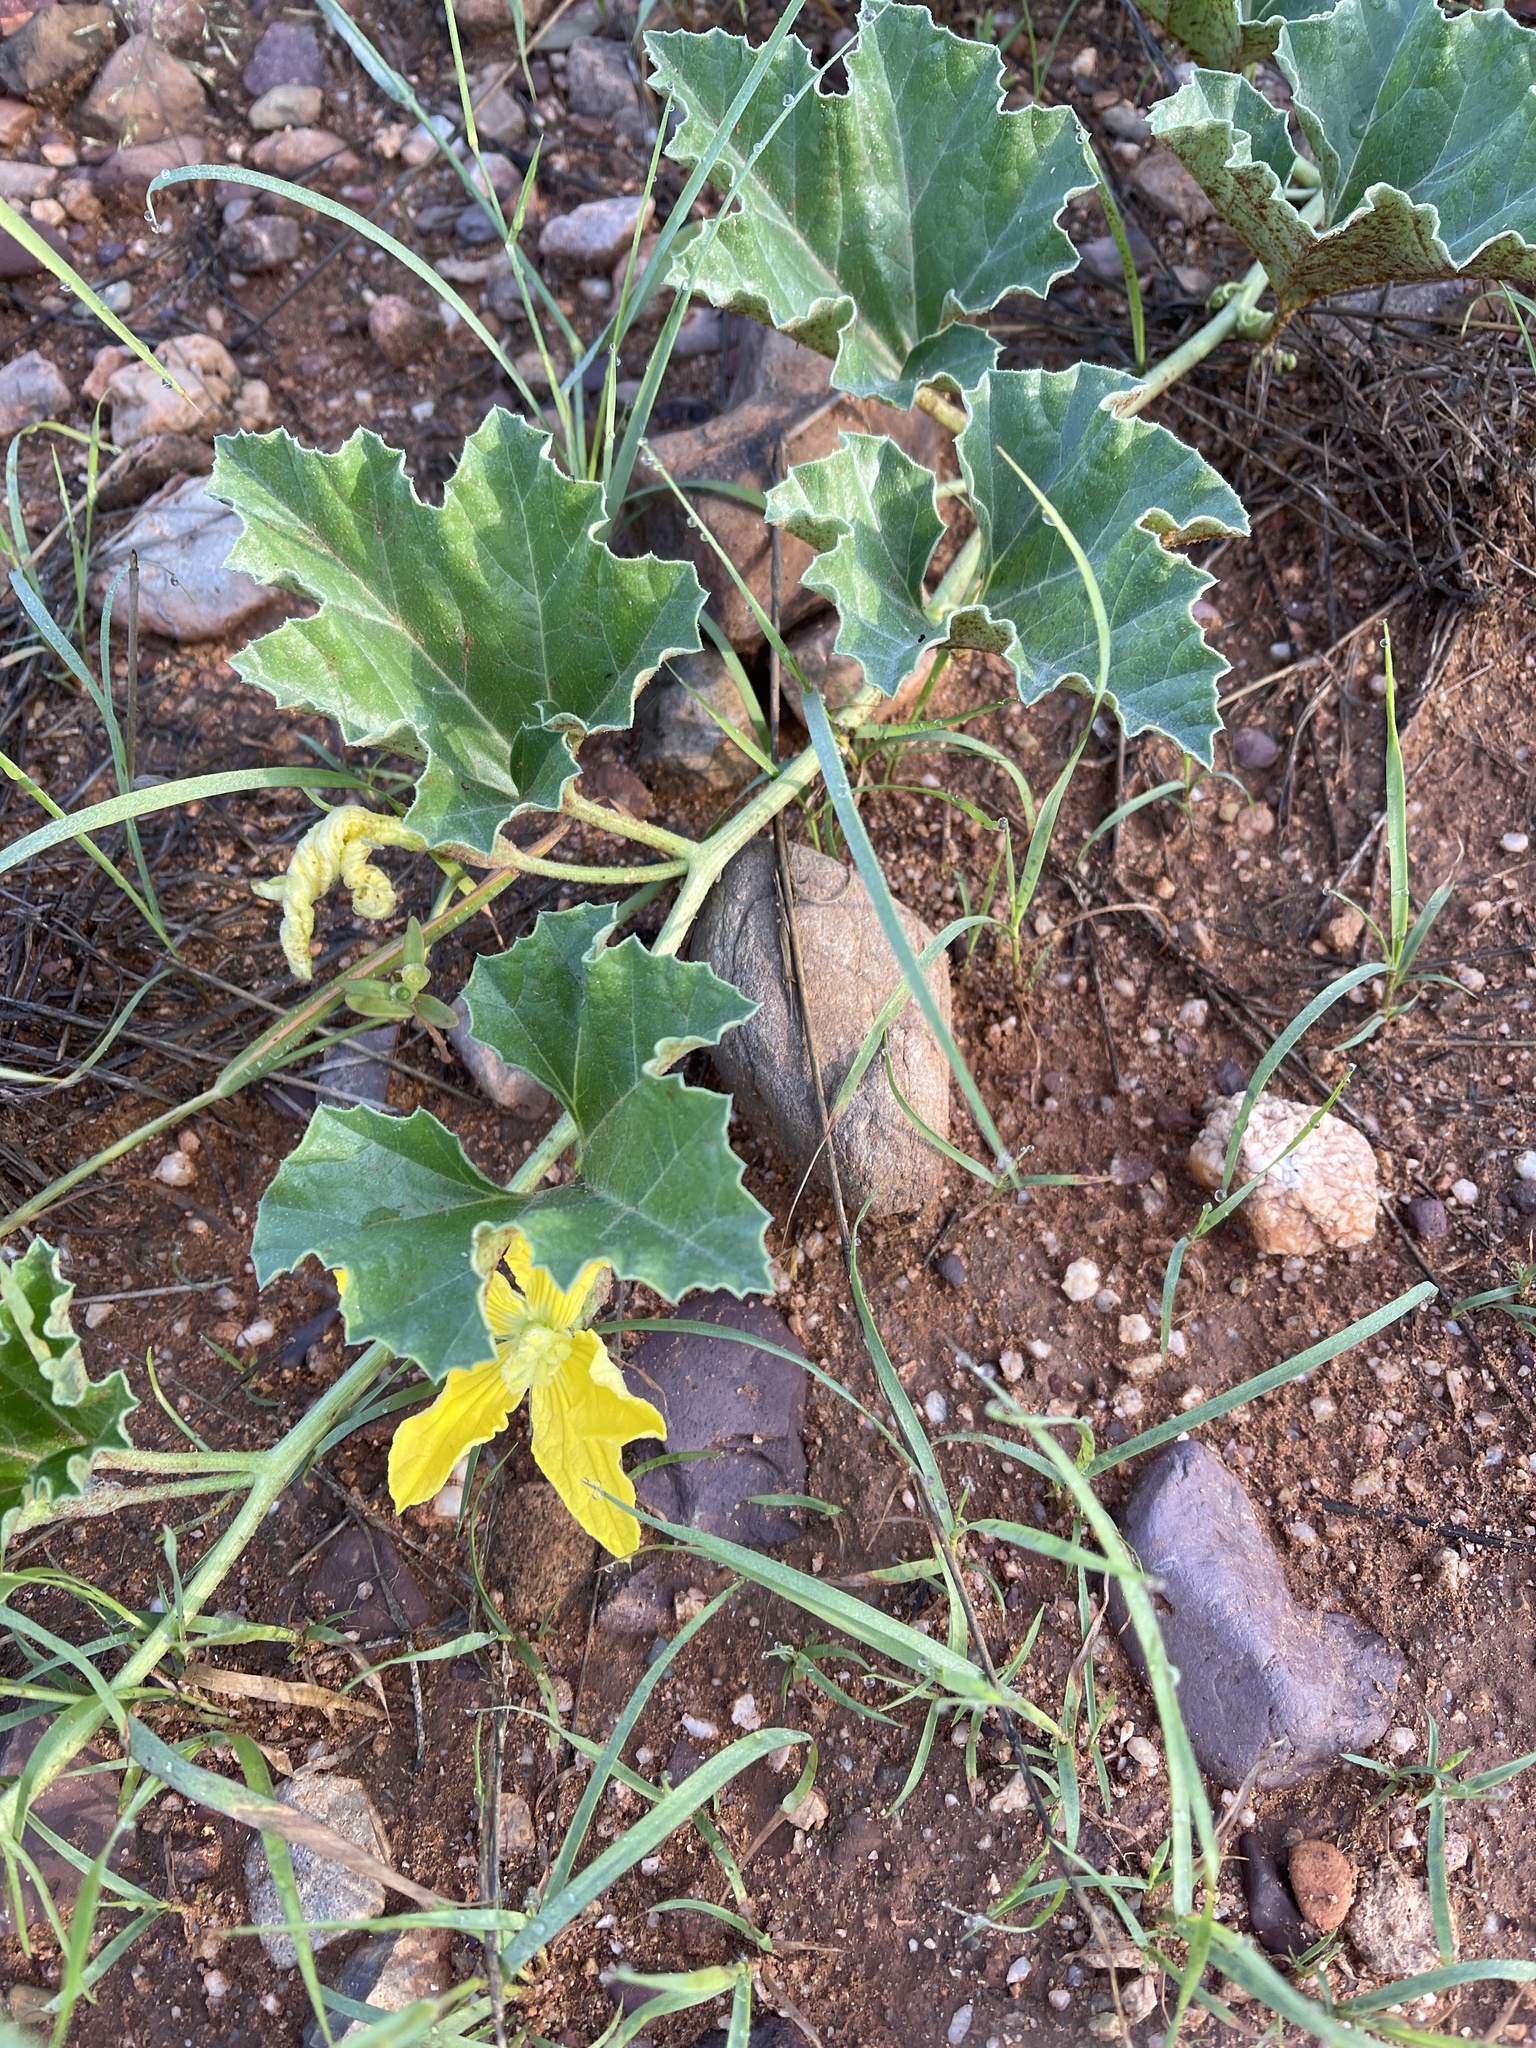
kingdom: Plantae
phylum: Tracheophyta
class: Magnoliopsida
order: Cucurbitales
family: Cucurbitaceae
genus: Apodanthera
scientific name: Apodanthera undulata
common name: Melon-loco
